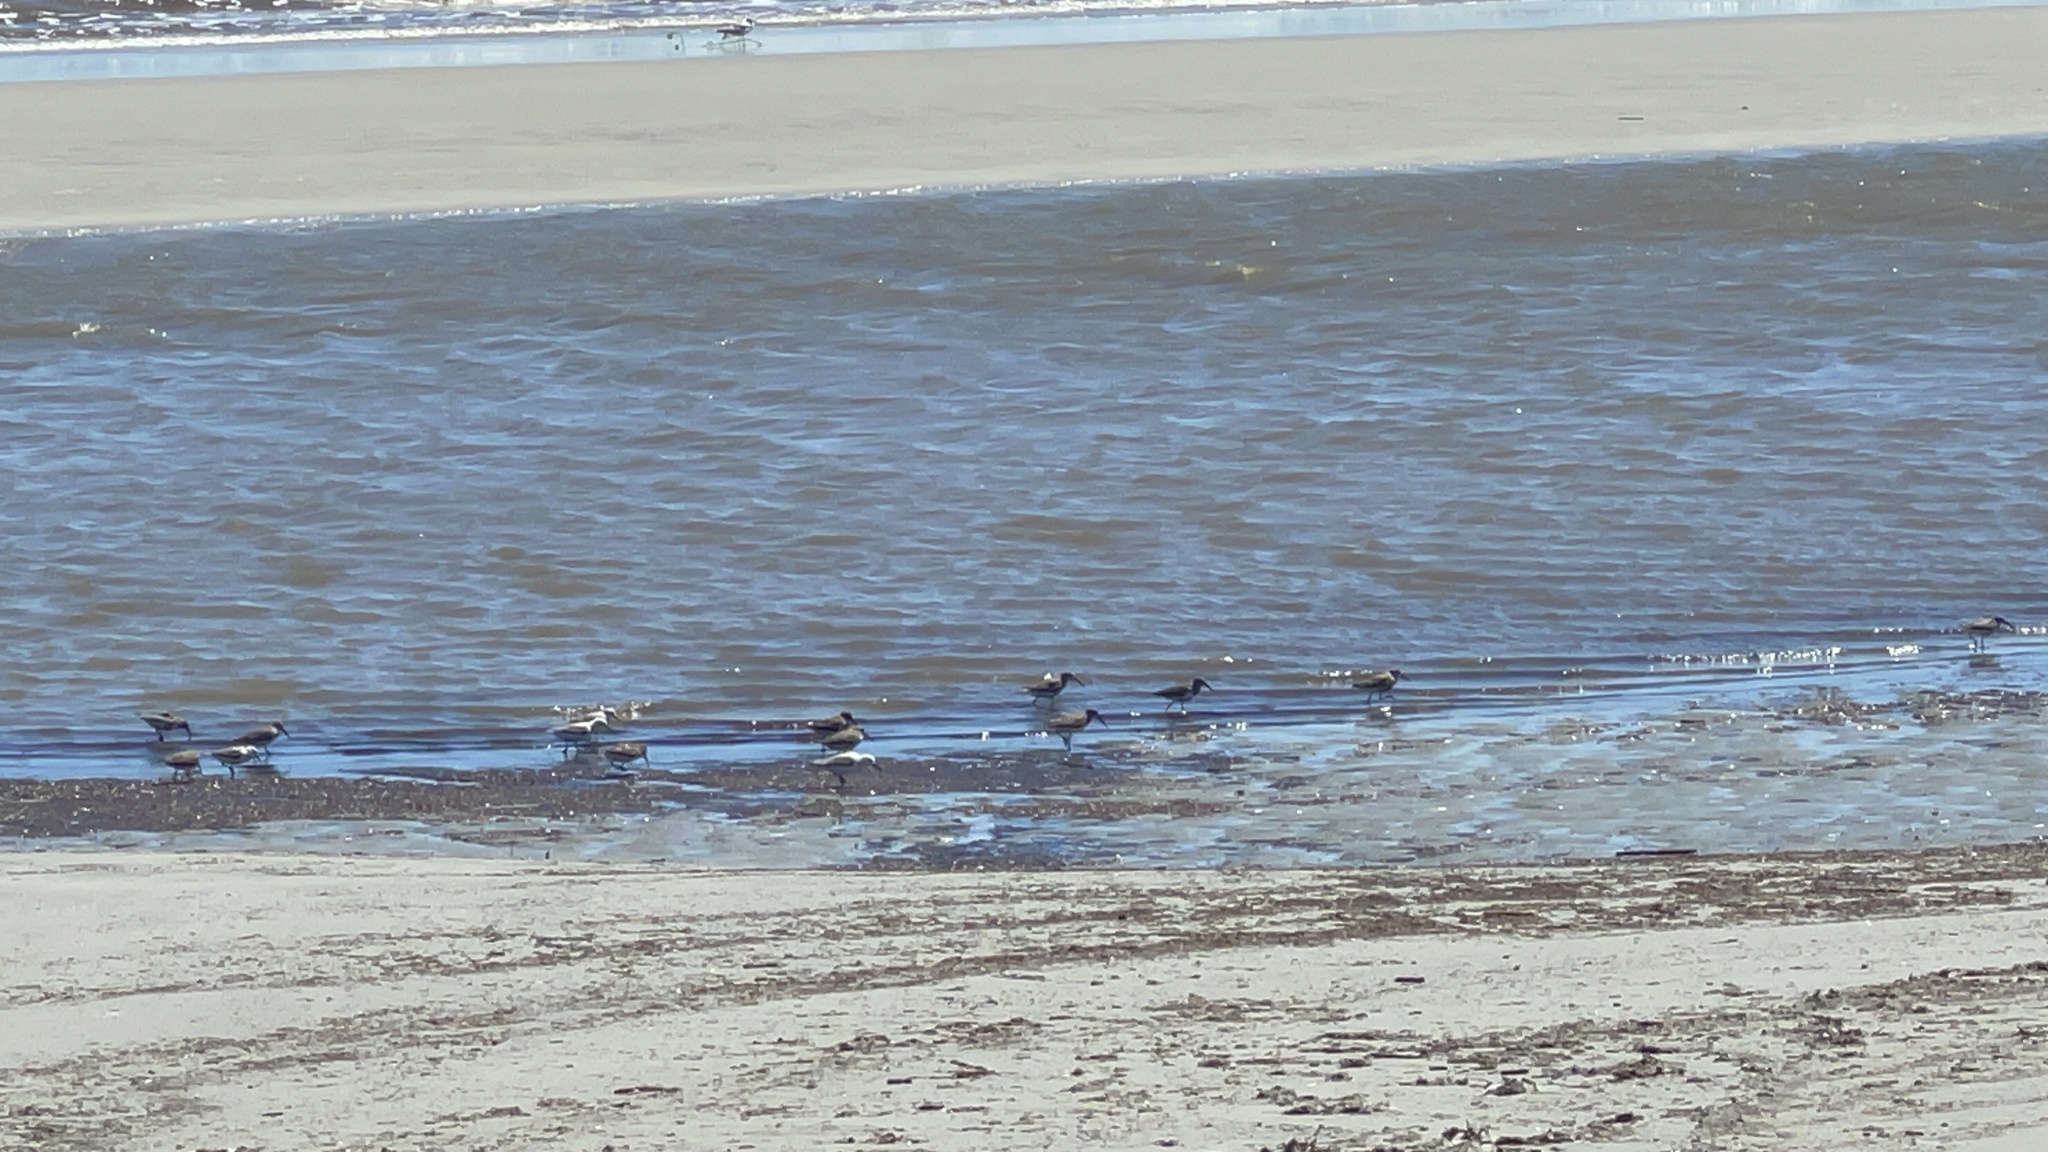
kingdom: Animalia
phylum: Chordata
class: Aves
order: Charadriiformes
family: Scolopacidae
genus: Calidris
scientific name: Calidris alpina
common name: Dunlin
